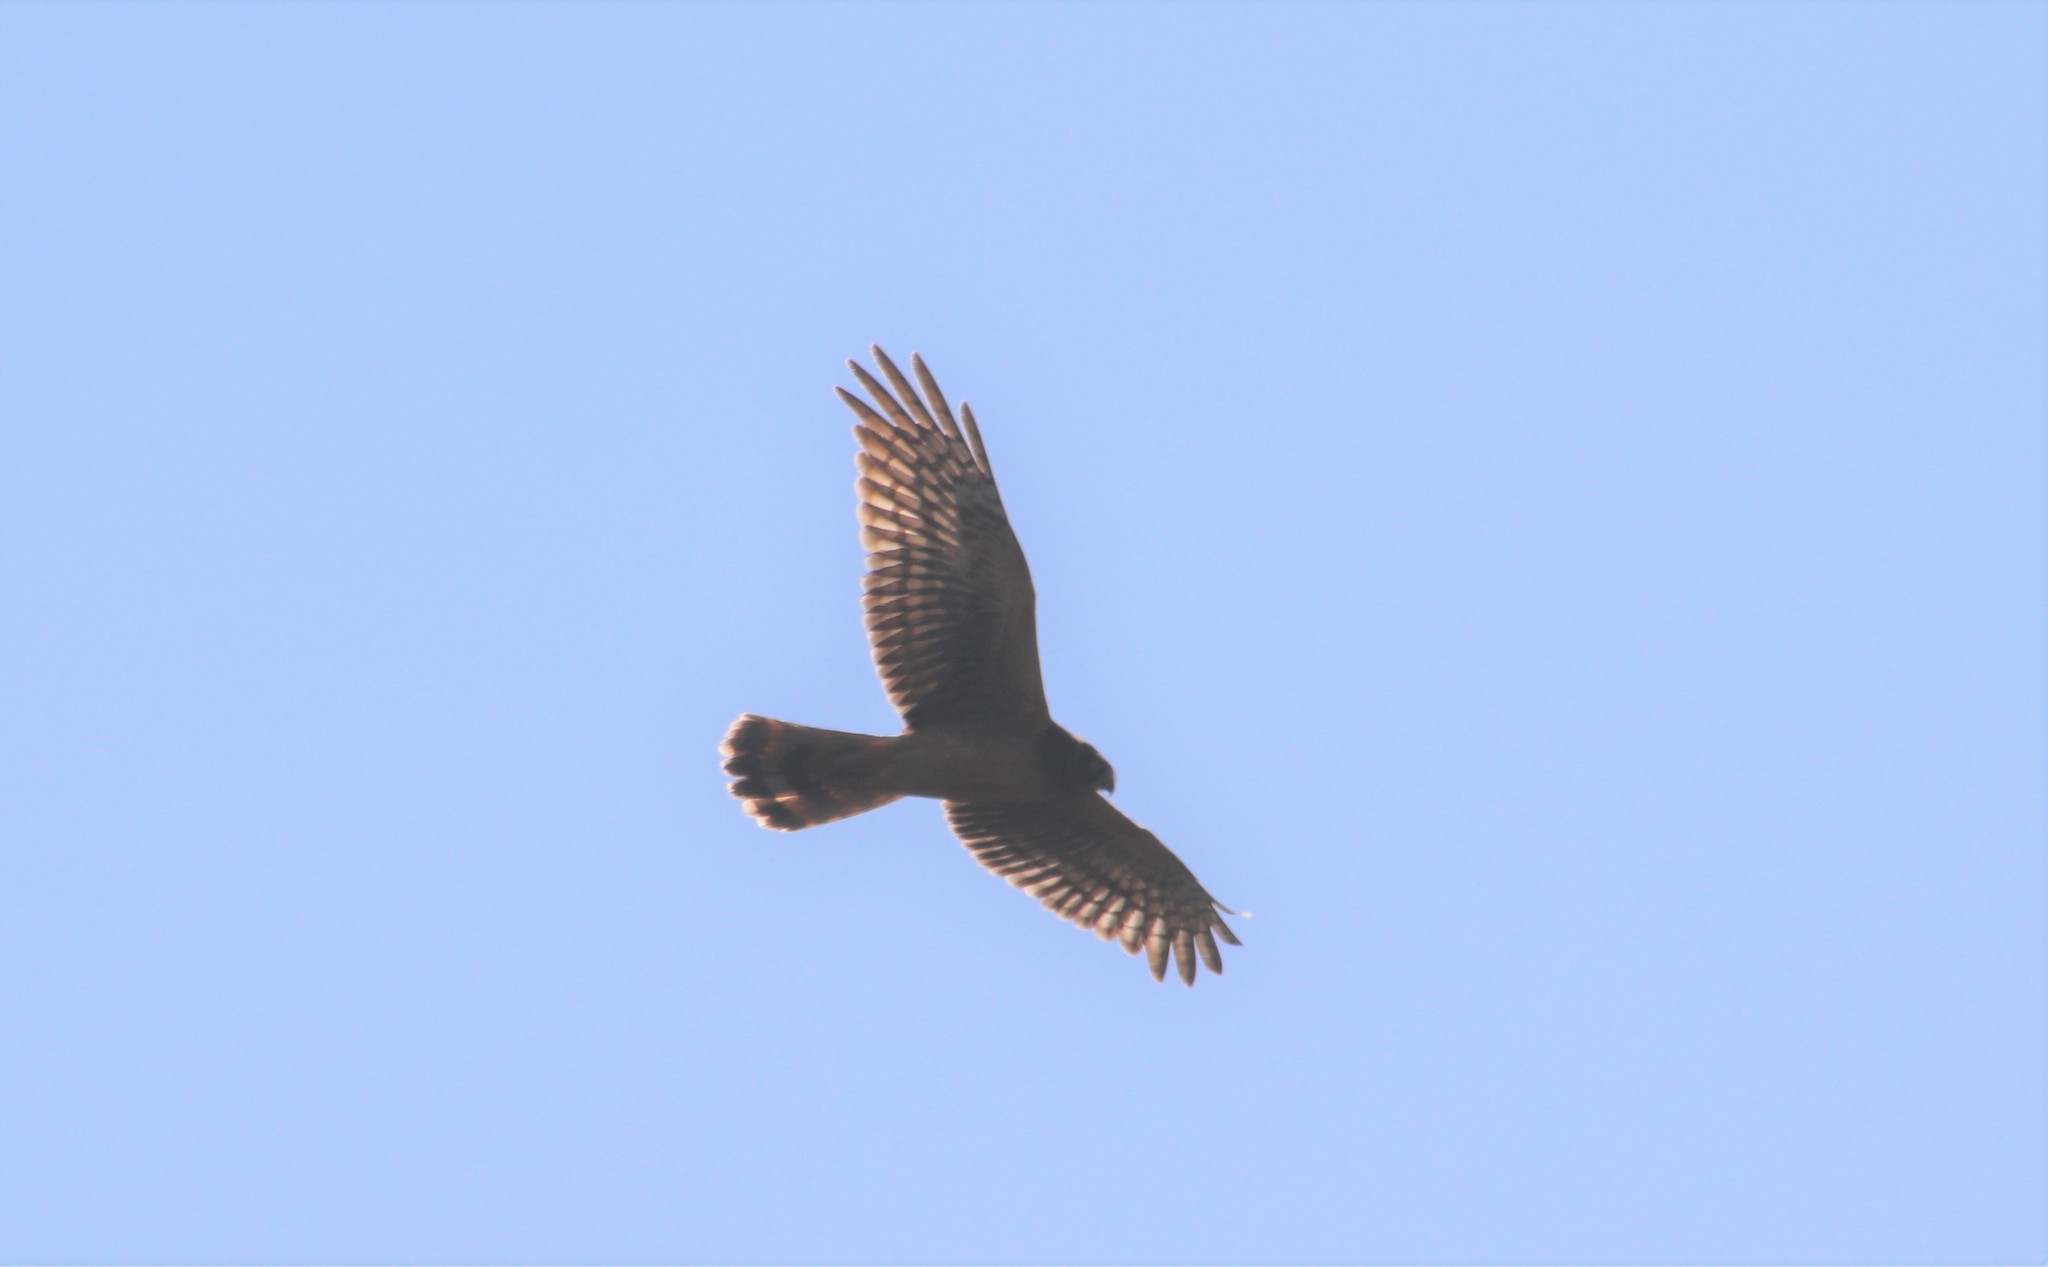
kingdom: Animalia
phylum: Chordata
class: Aves
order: Accipitriformes
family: Accipitridae
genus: Circus
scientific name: Circus cyaneus
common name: Hen harrier
